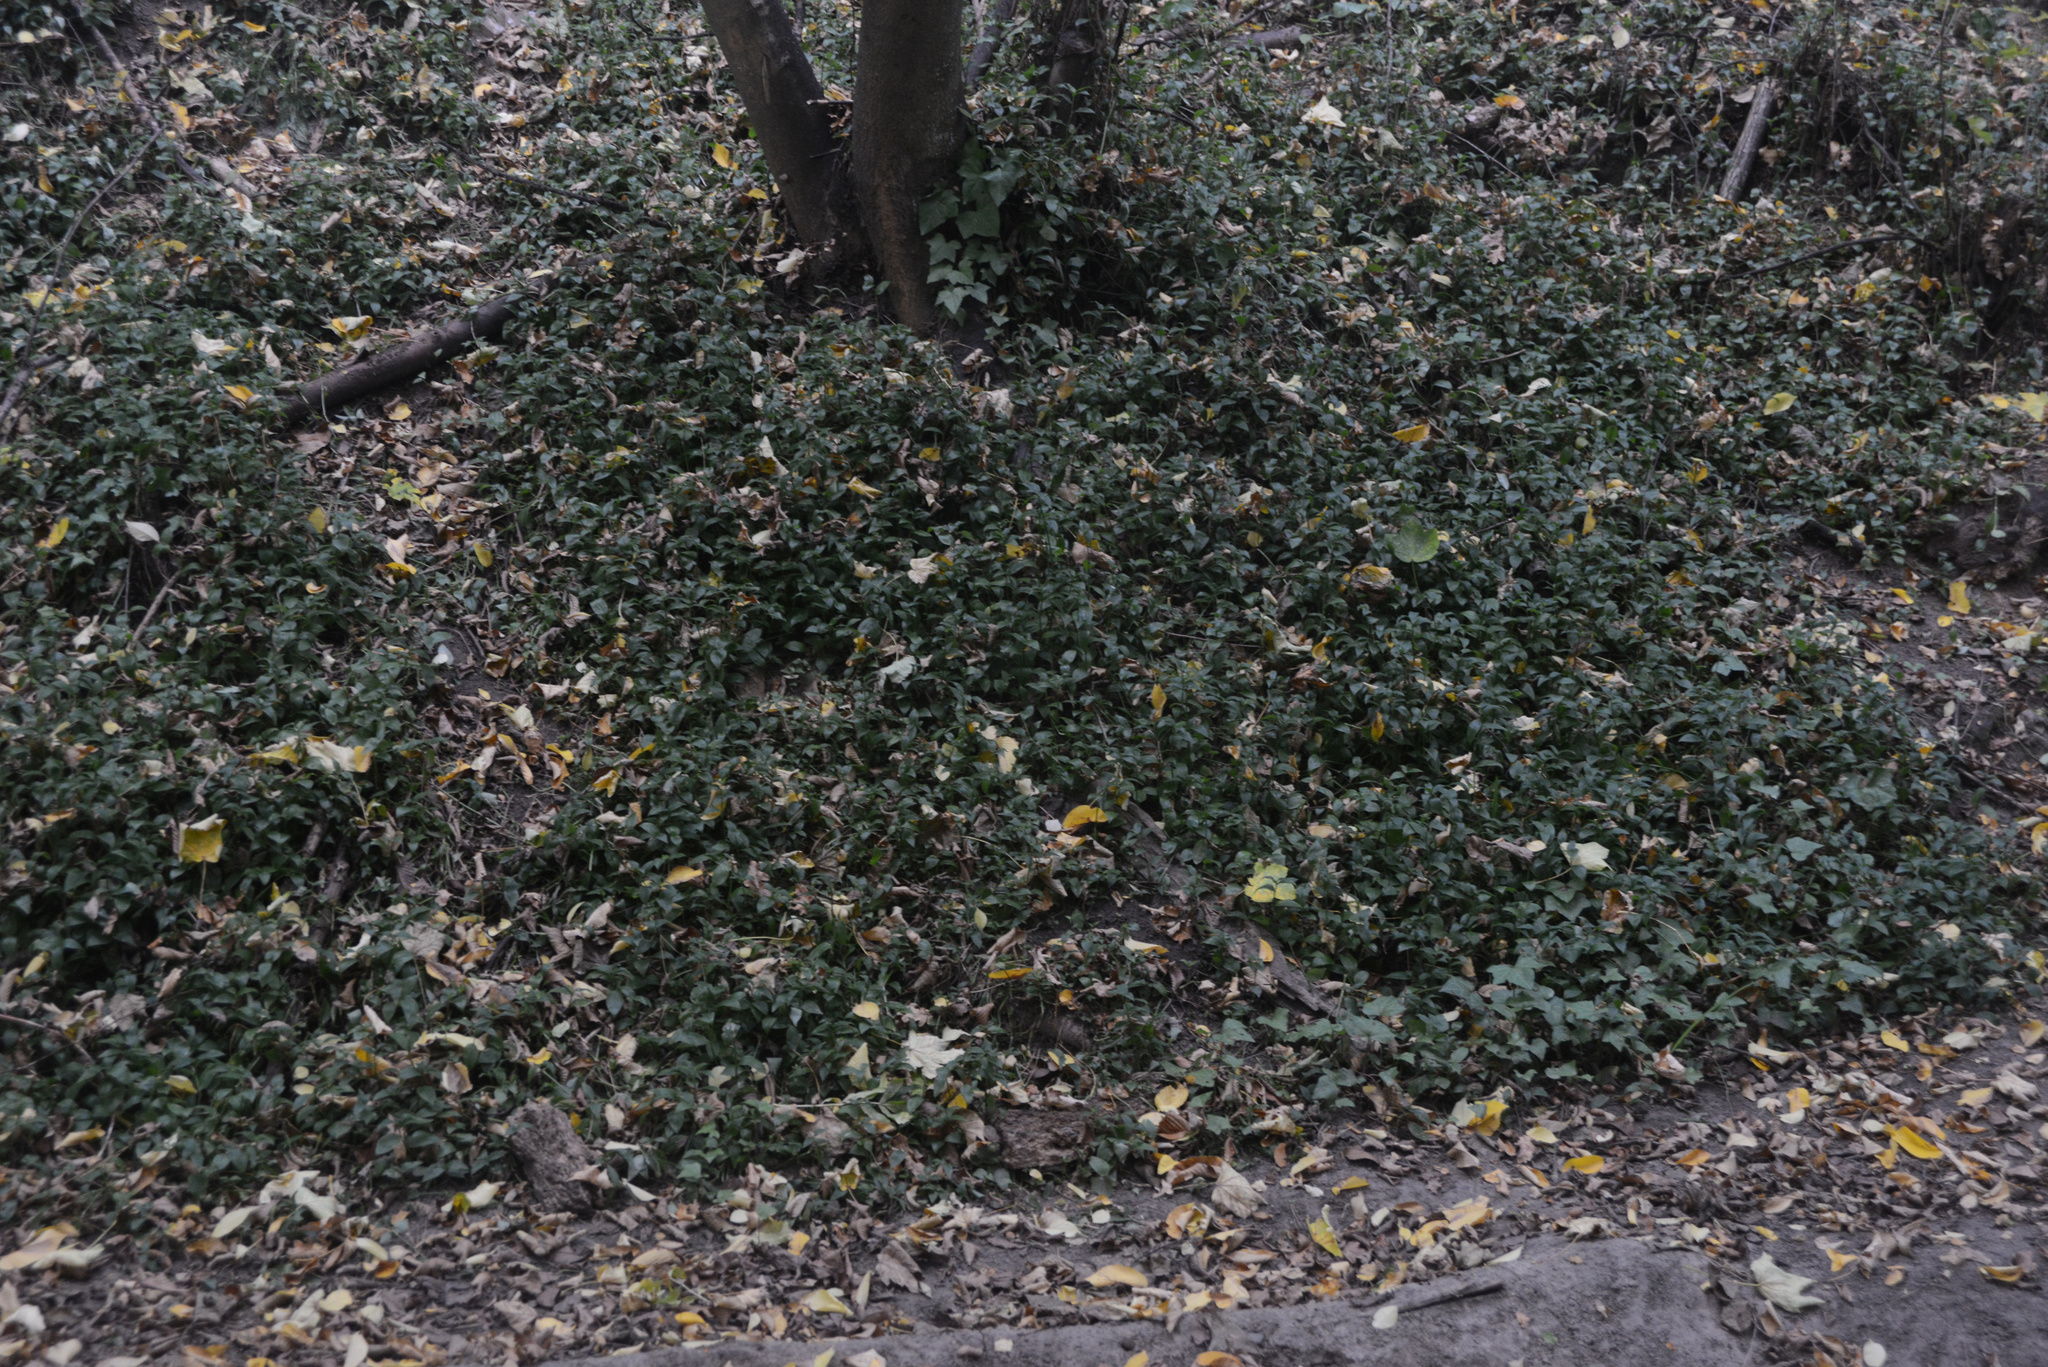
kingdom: Plantae
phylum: Tracheophyta
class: Liliopsida
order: Commelinales
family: Commelinaceae
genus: Tradescantia
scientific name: Tradescantia fluminensis
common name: Wandering-jew
